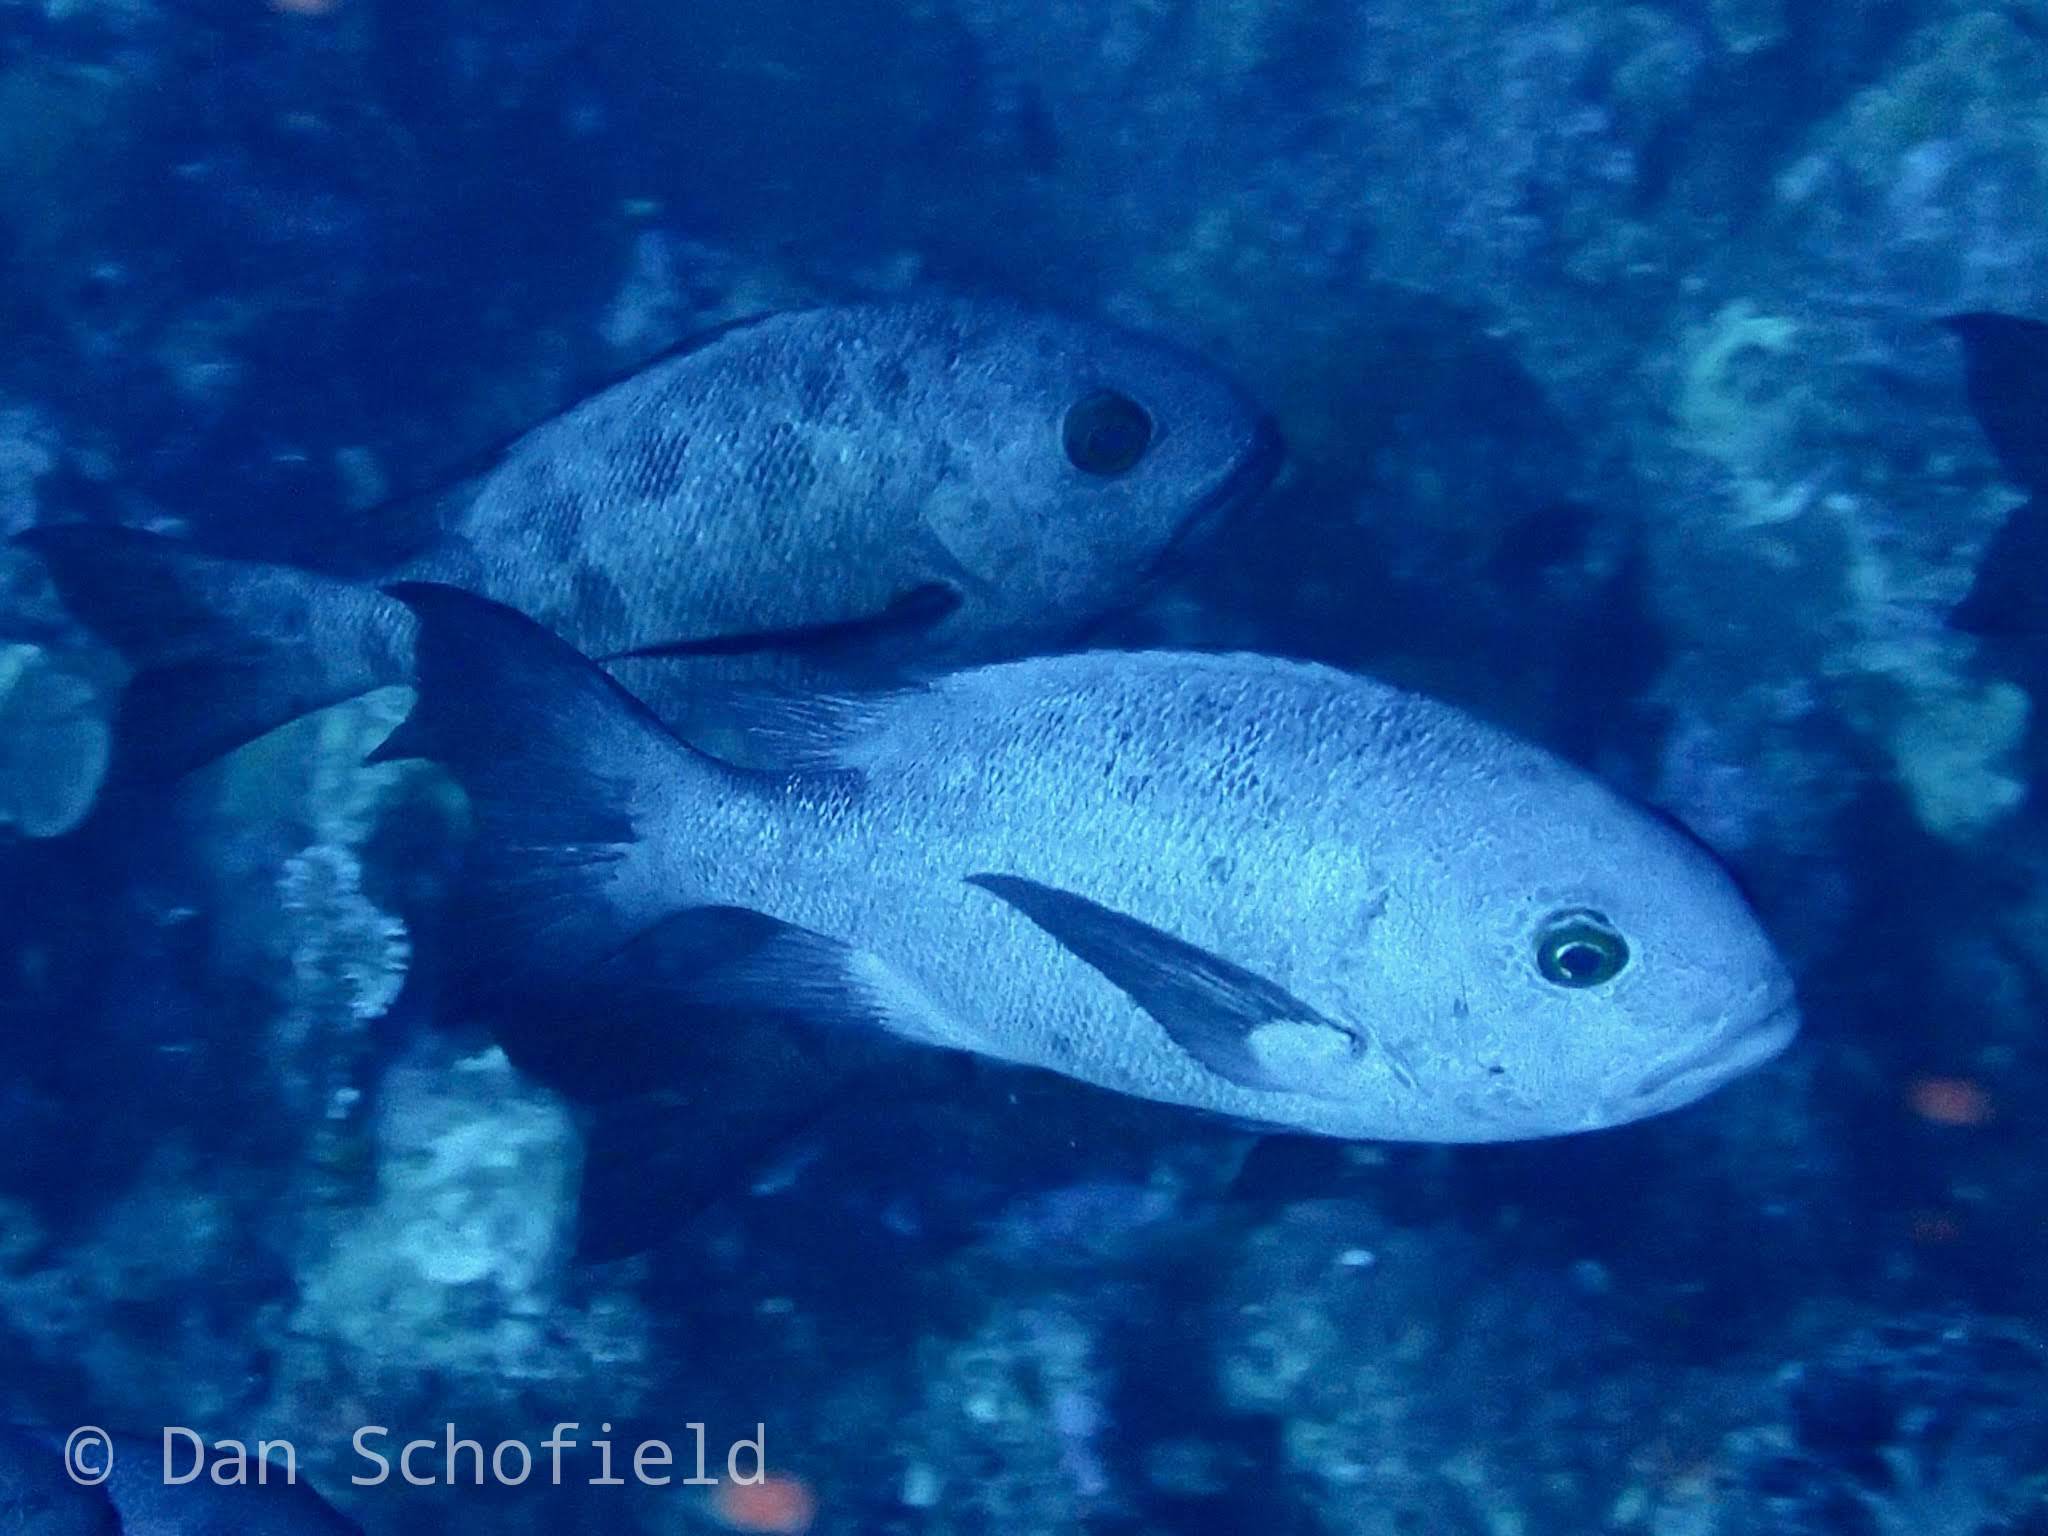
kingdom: Animalia
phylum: Chordata
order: Perciformes
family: Lutjanidae
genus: Macolor
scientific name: Macolor niger
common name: Black snapper
